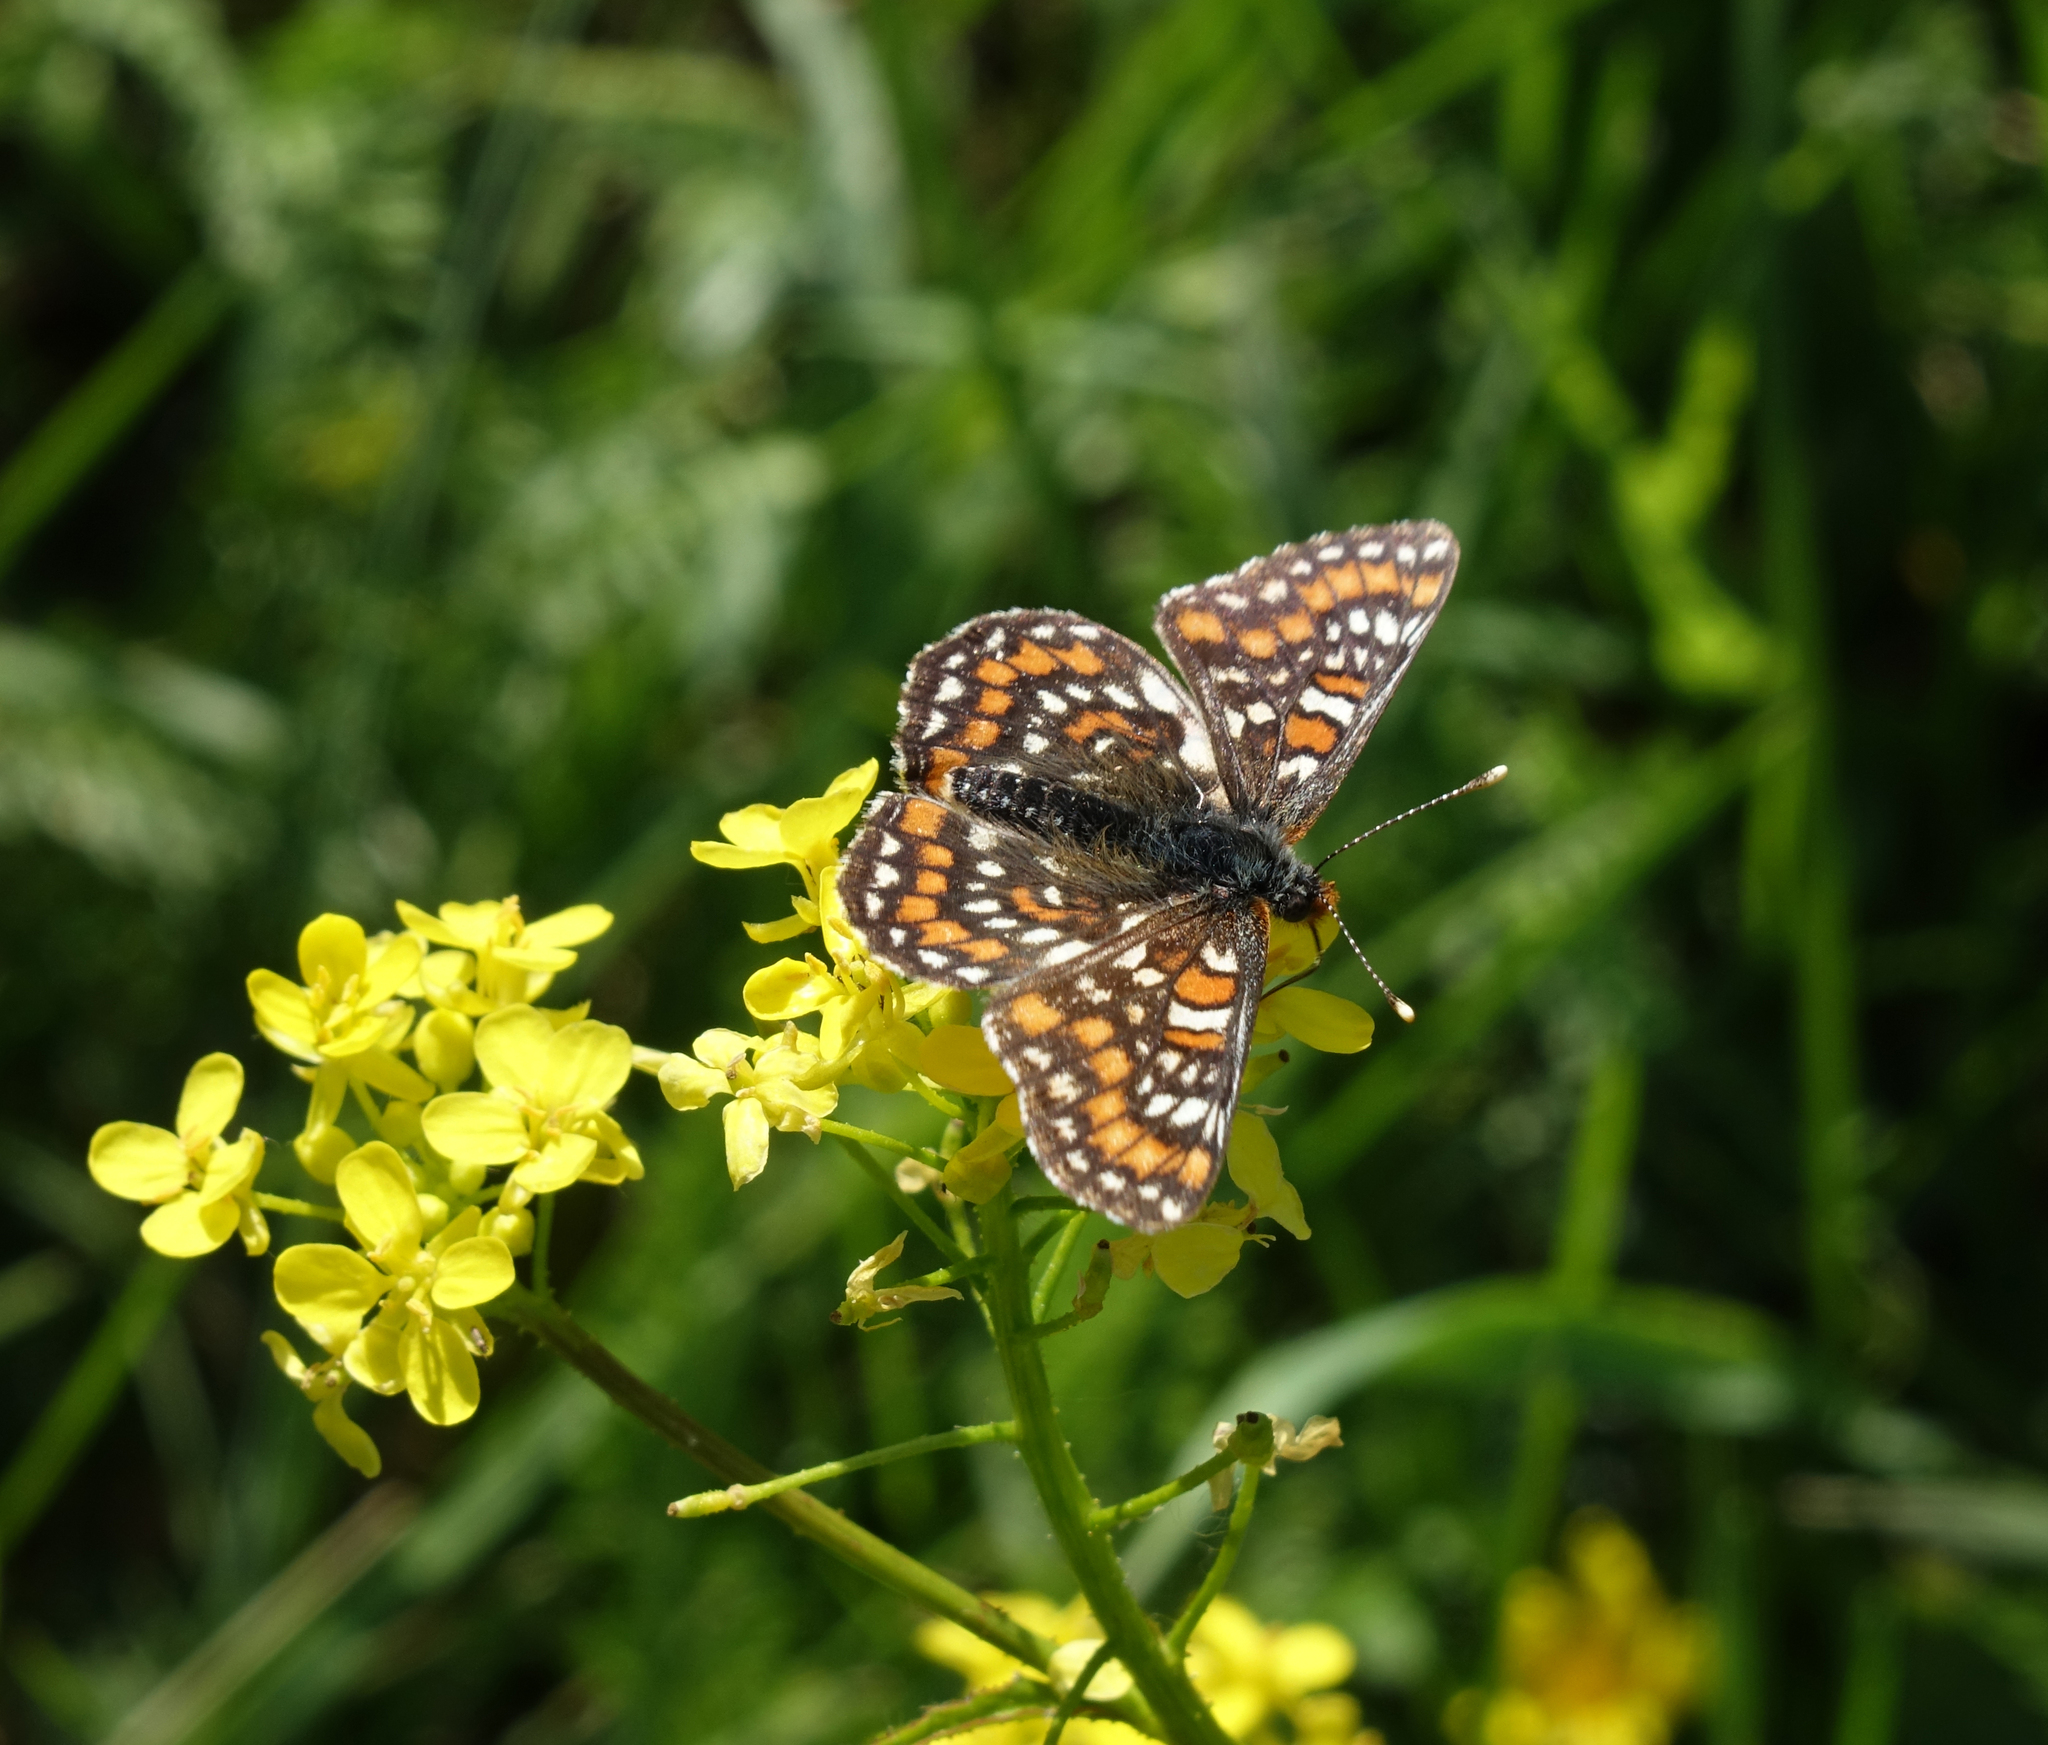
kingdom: Animalia
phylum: Arthropoda
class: Insecta
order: Lepidoptera
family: Nymphalidae
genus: Euphydryas
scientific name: Euphydryas maturna
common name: Scarce fritillary
